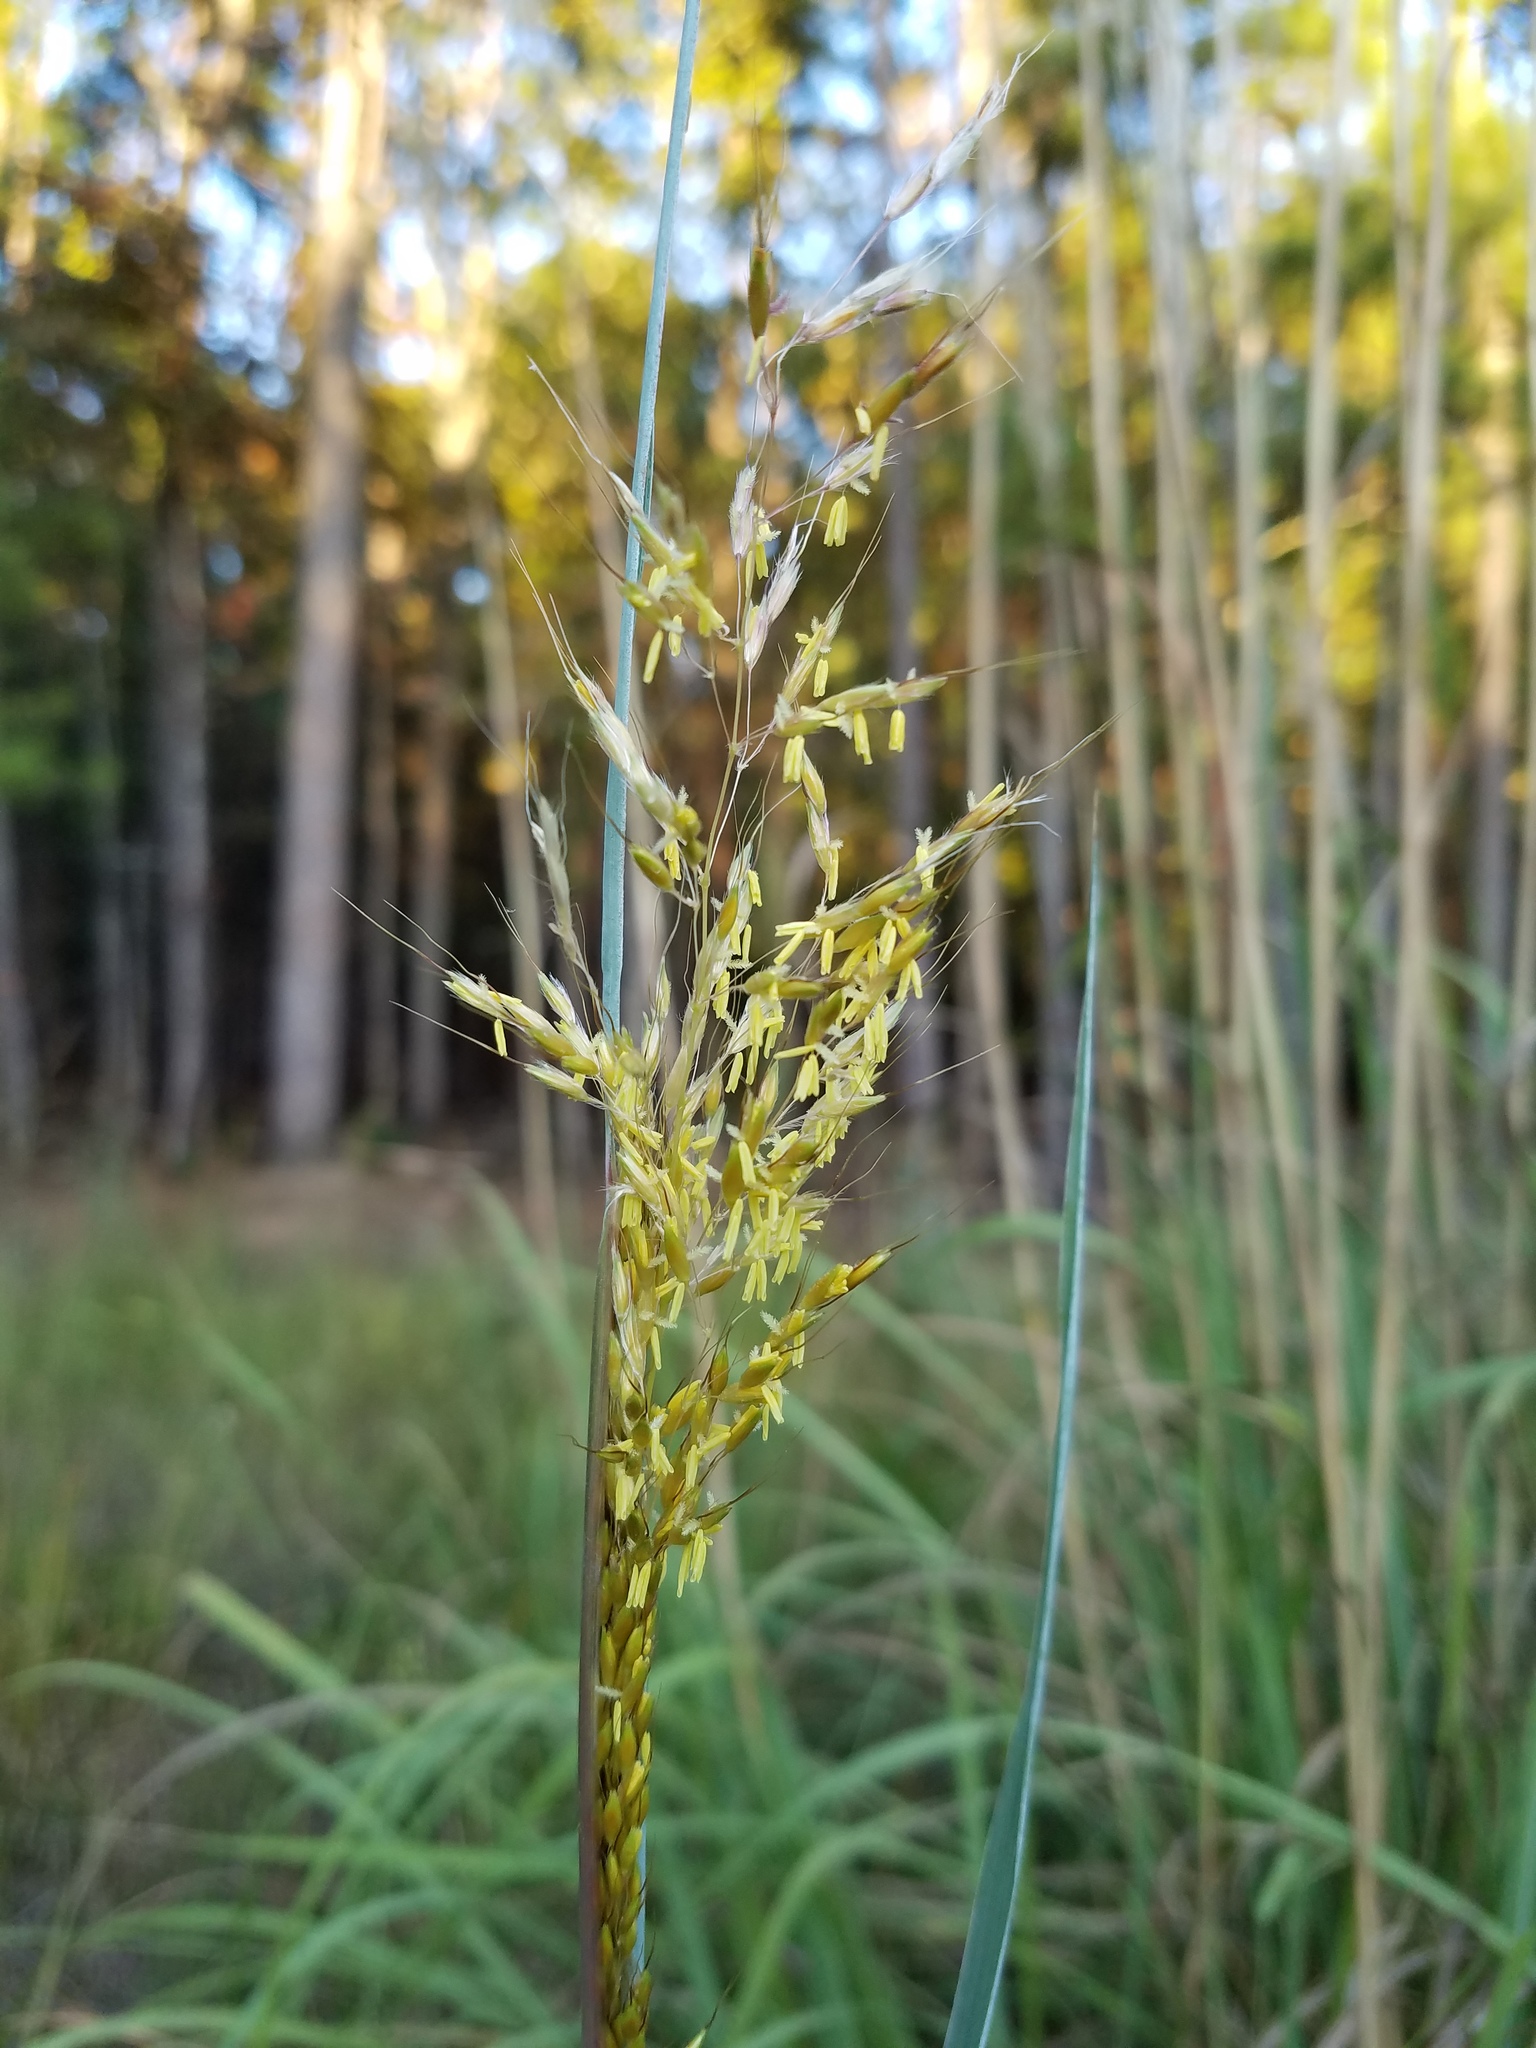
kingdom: Plantae
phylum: Tracheophyta
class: Liliopsida
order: Poales
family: Poaceae
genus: Sorghastrum
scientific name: Sorghastrum nutans
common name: Indian grass
